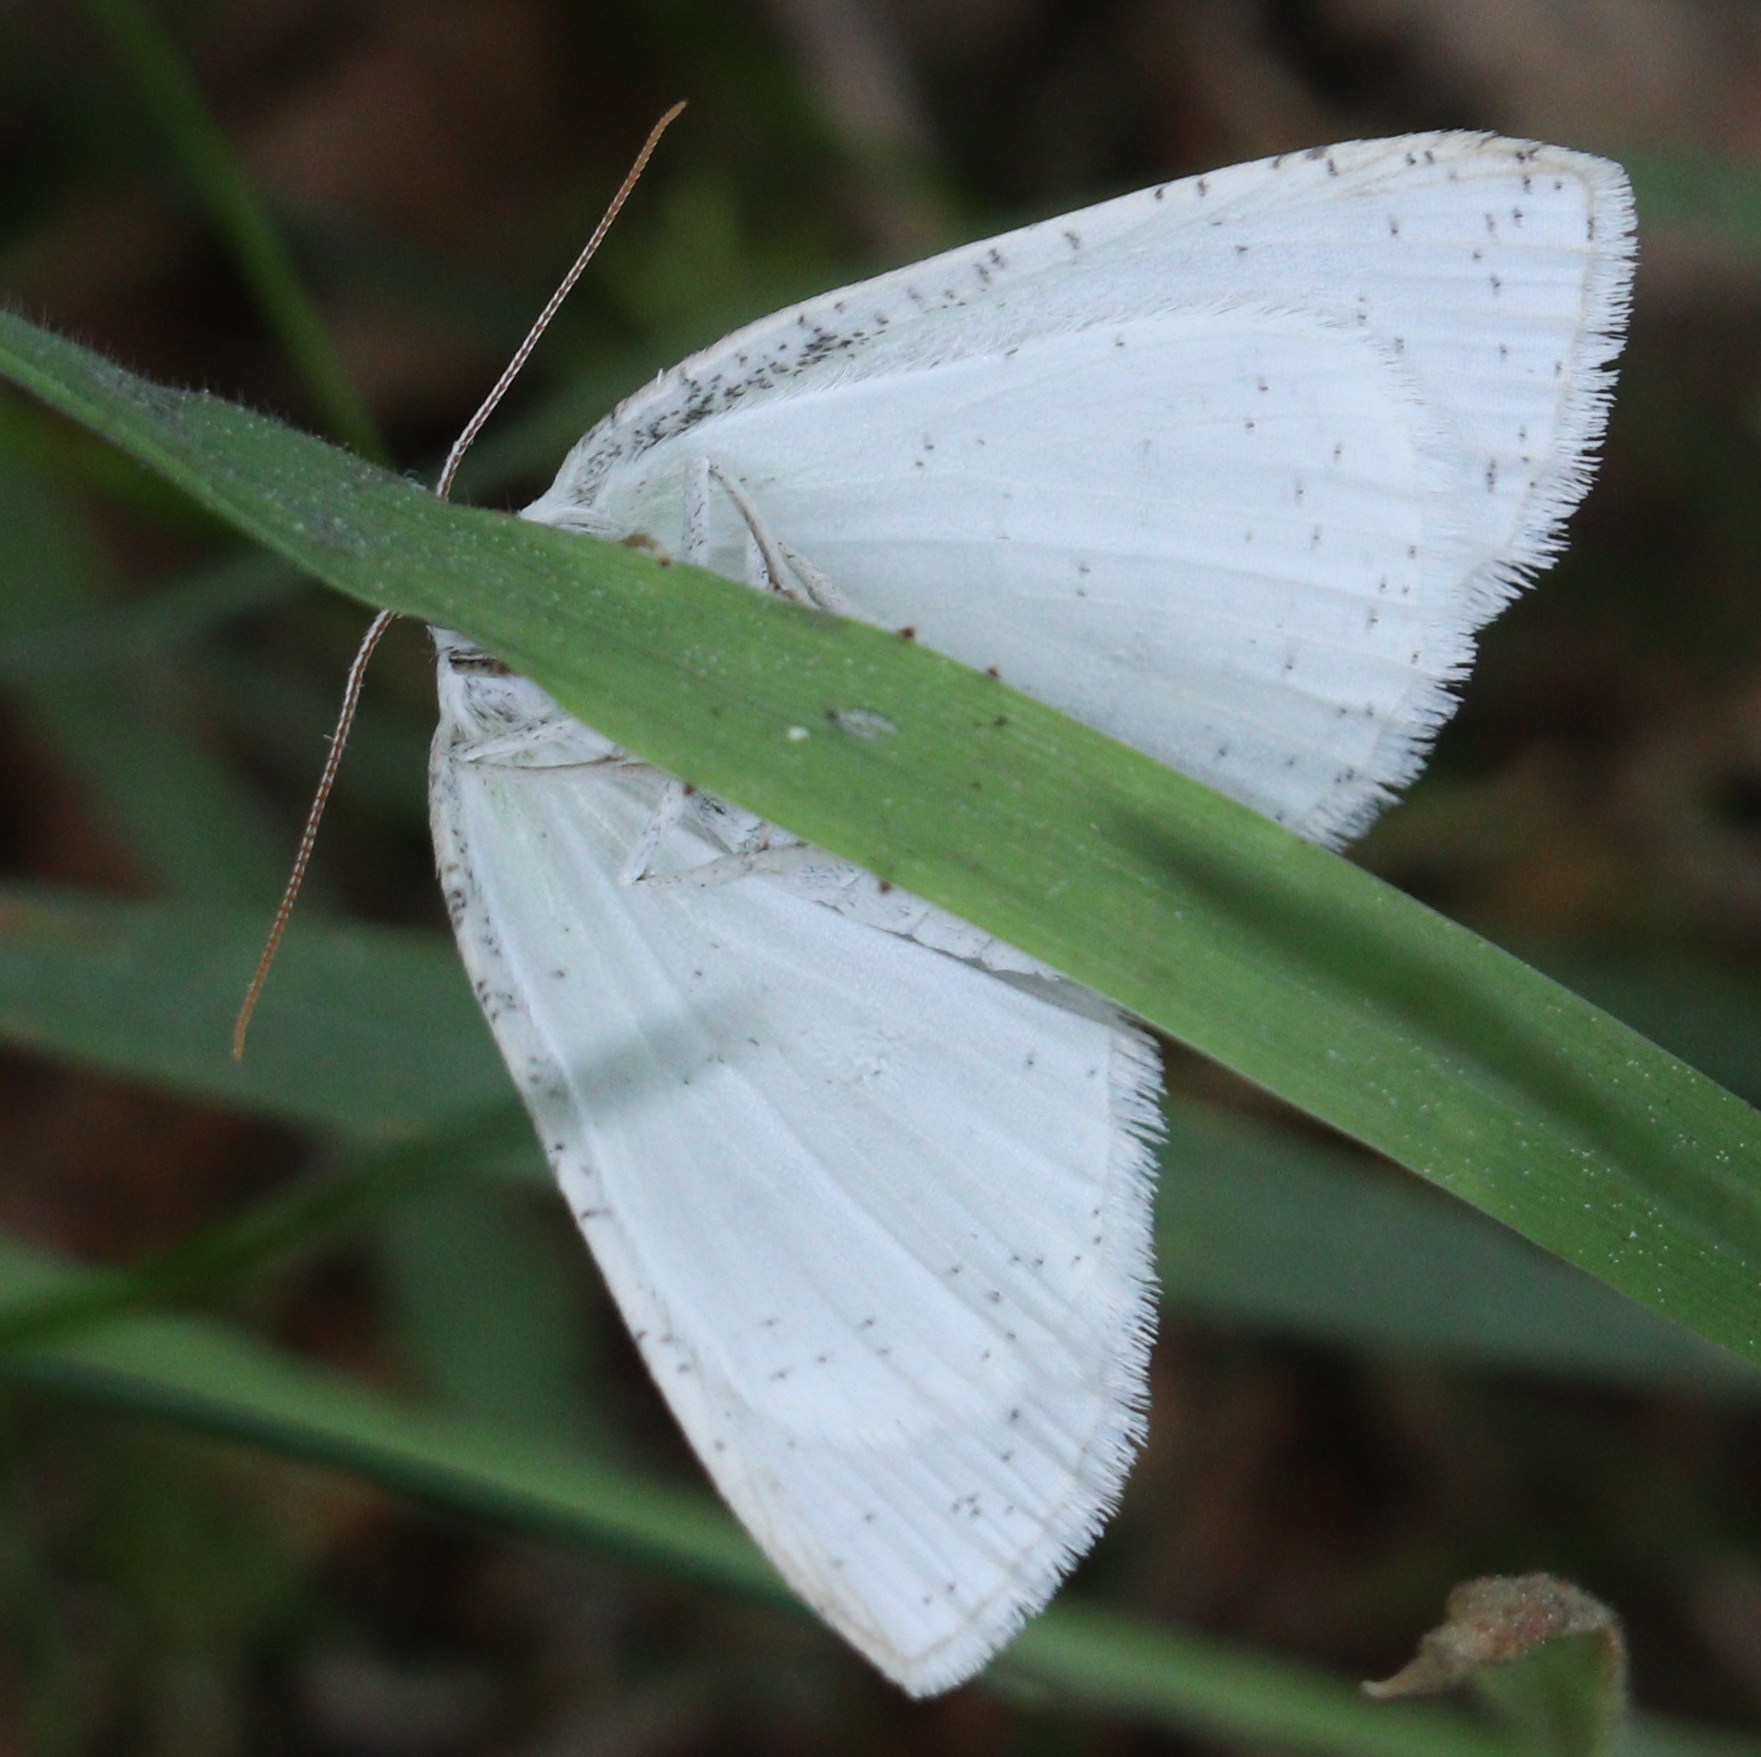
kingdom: Animalia
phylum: Arthropoda
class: Insecta
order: Lepidoptera
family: Geometridae
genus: Cabera
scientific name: Cabera pusaria
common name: Common white wave
